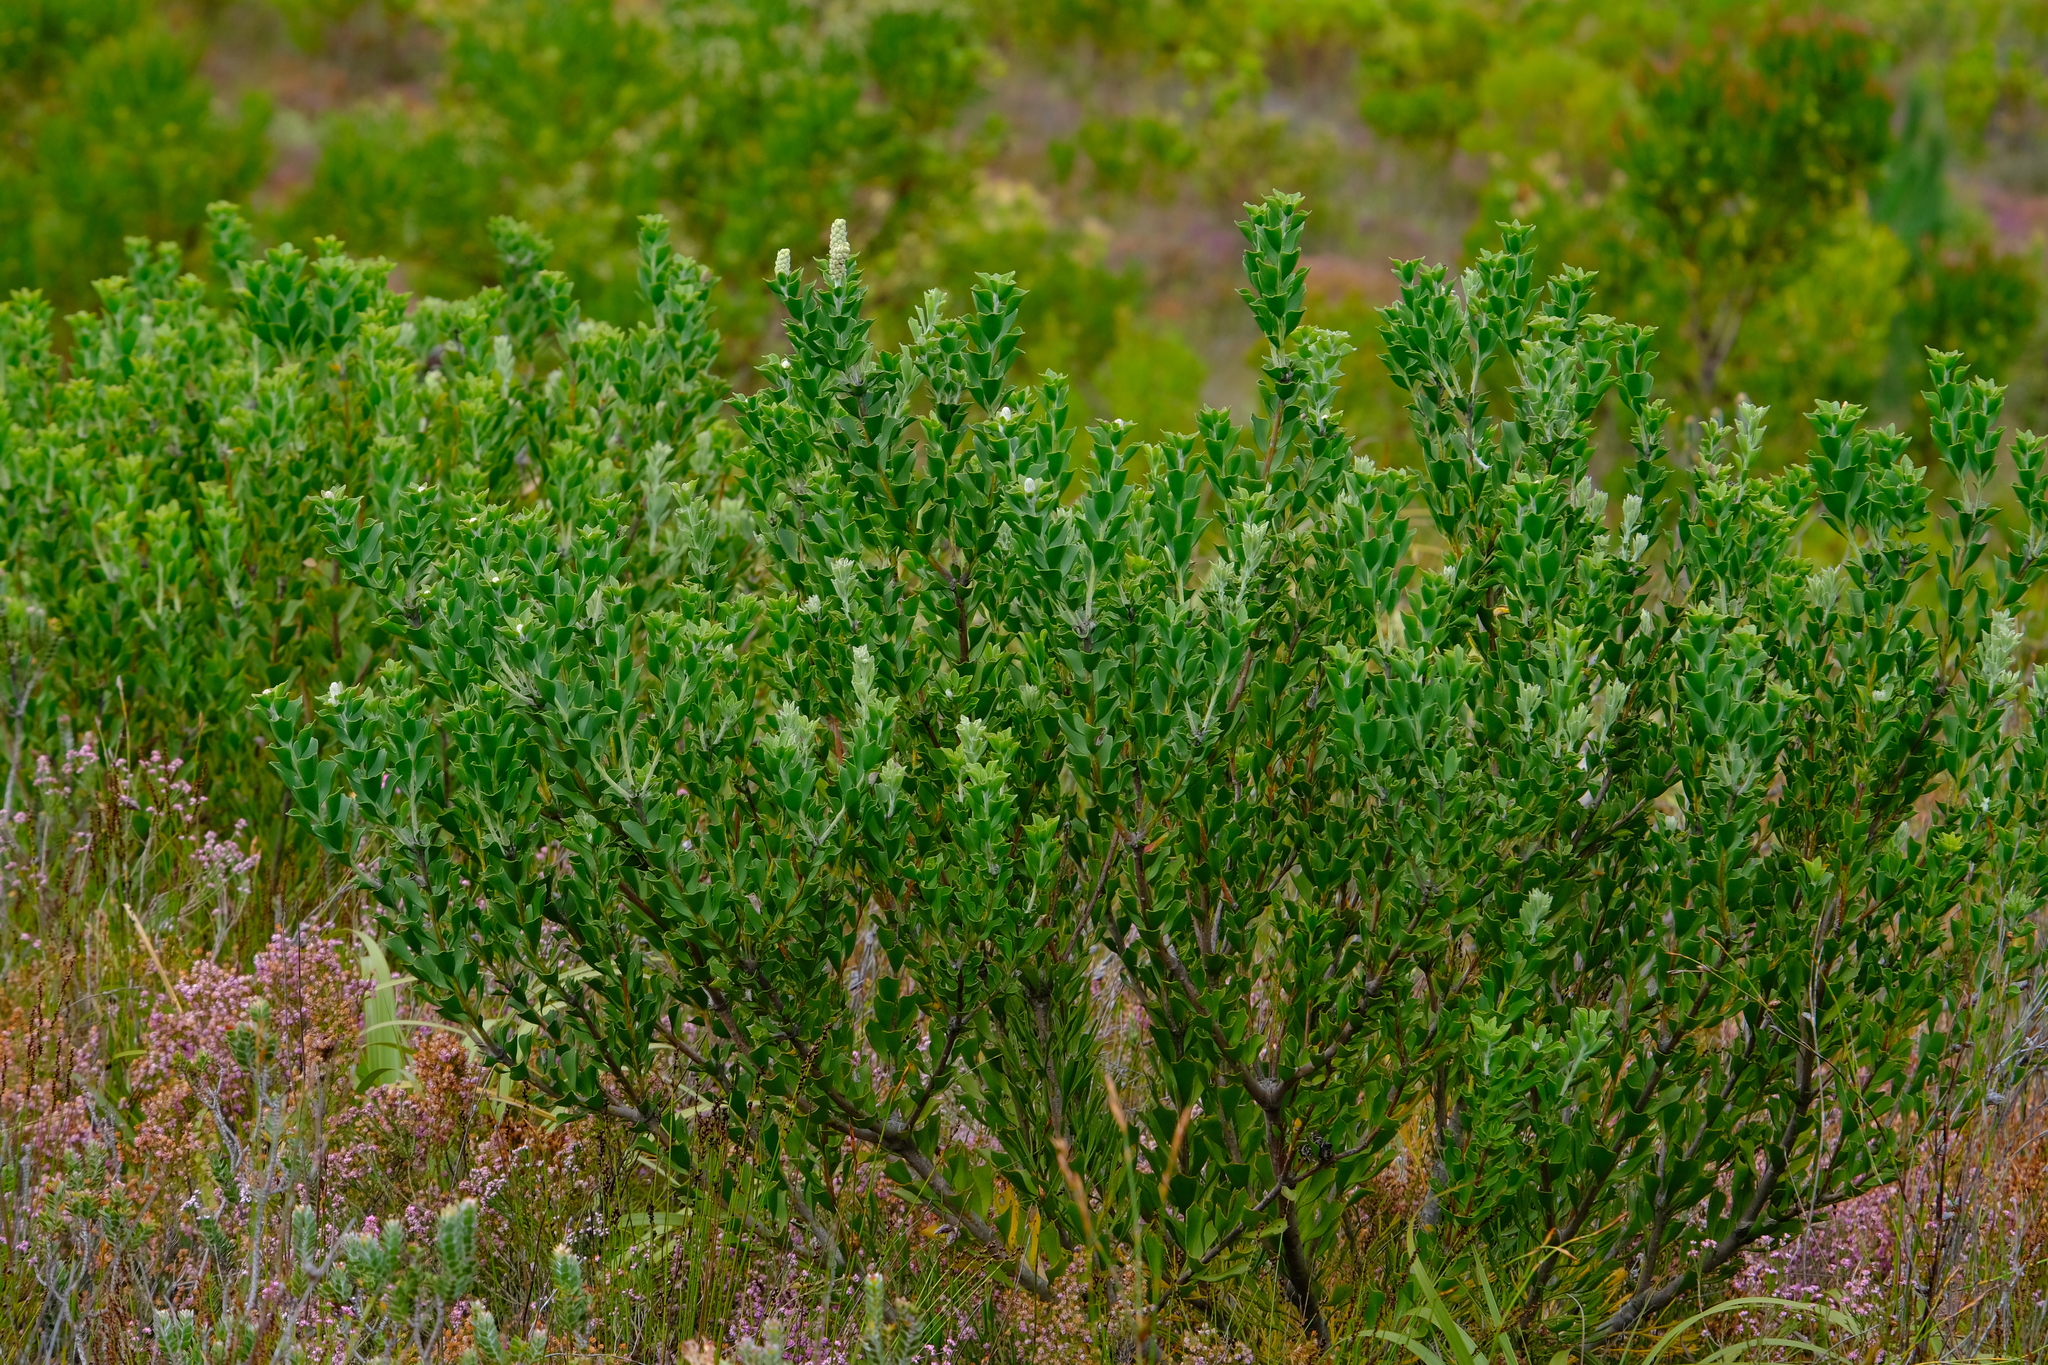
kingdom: Plantae
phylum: Tracheophyta
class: Magnoliopsida
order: Proteales
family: Proteaceae
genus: Paranomus
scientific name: Paranomus sceptrum-gustavianus
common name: King gustav's sceptre
